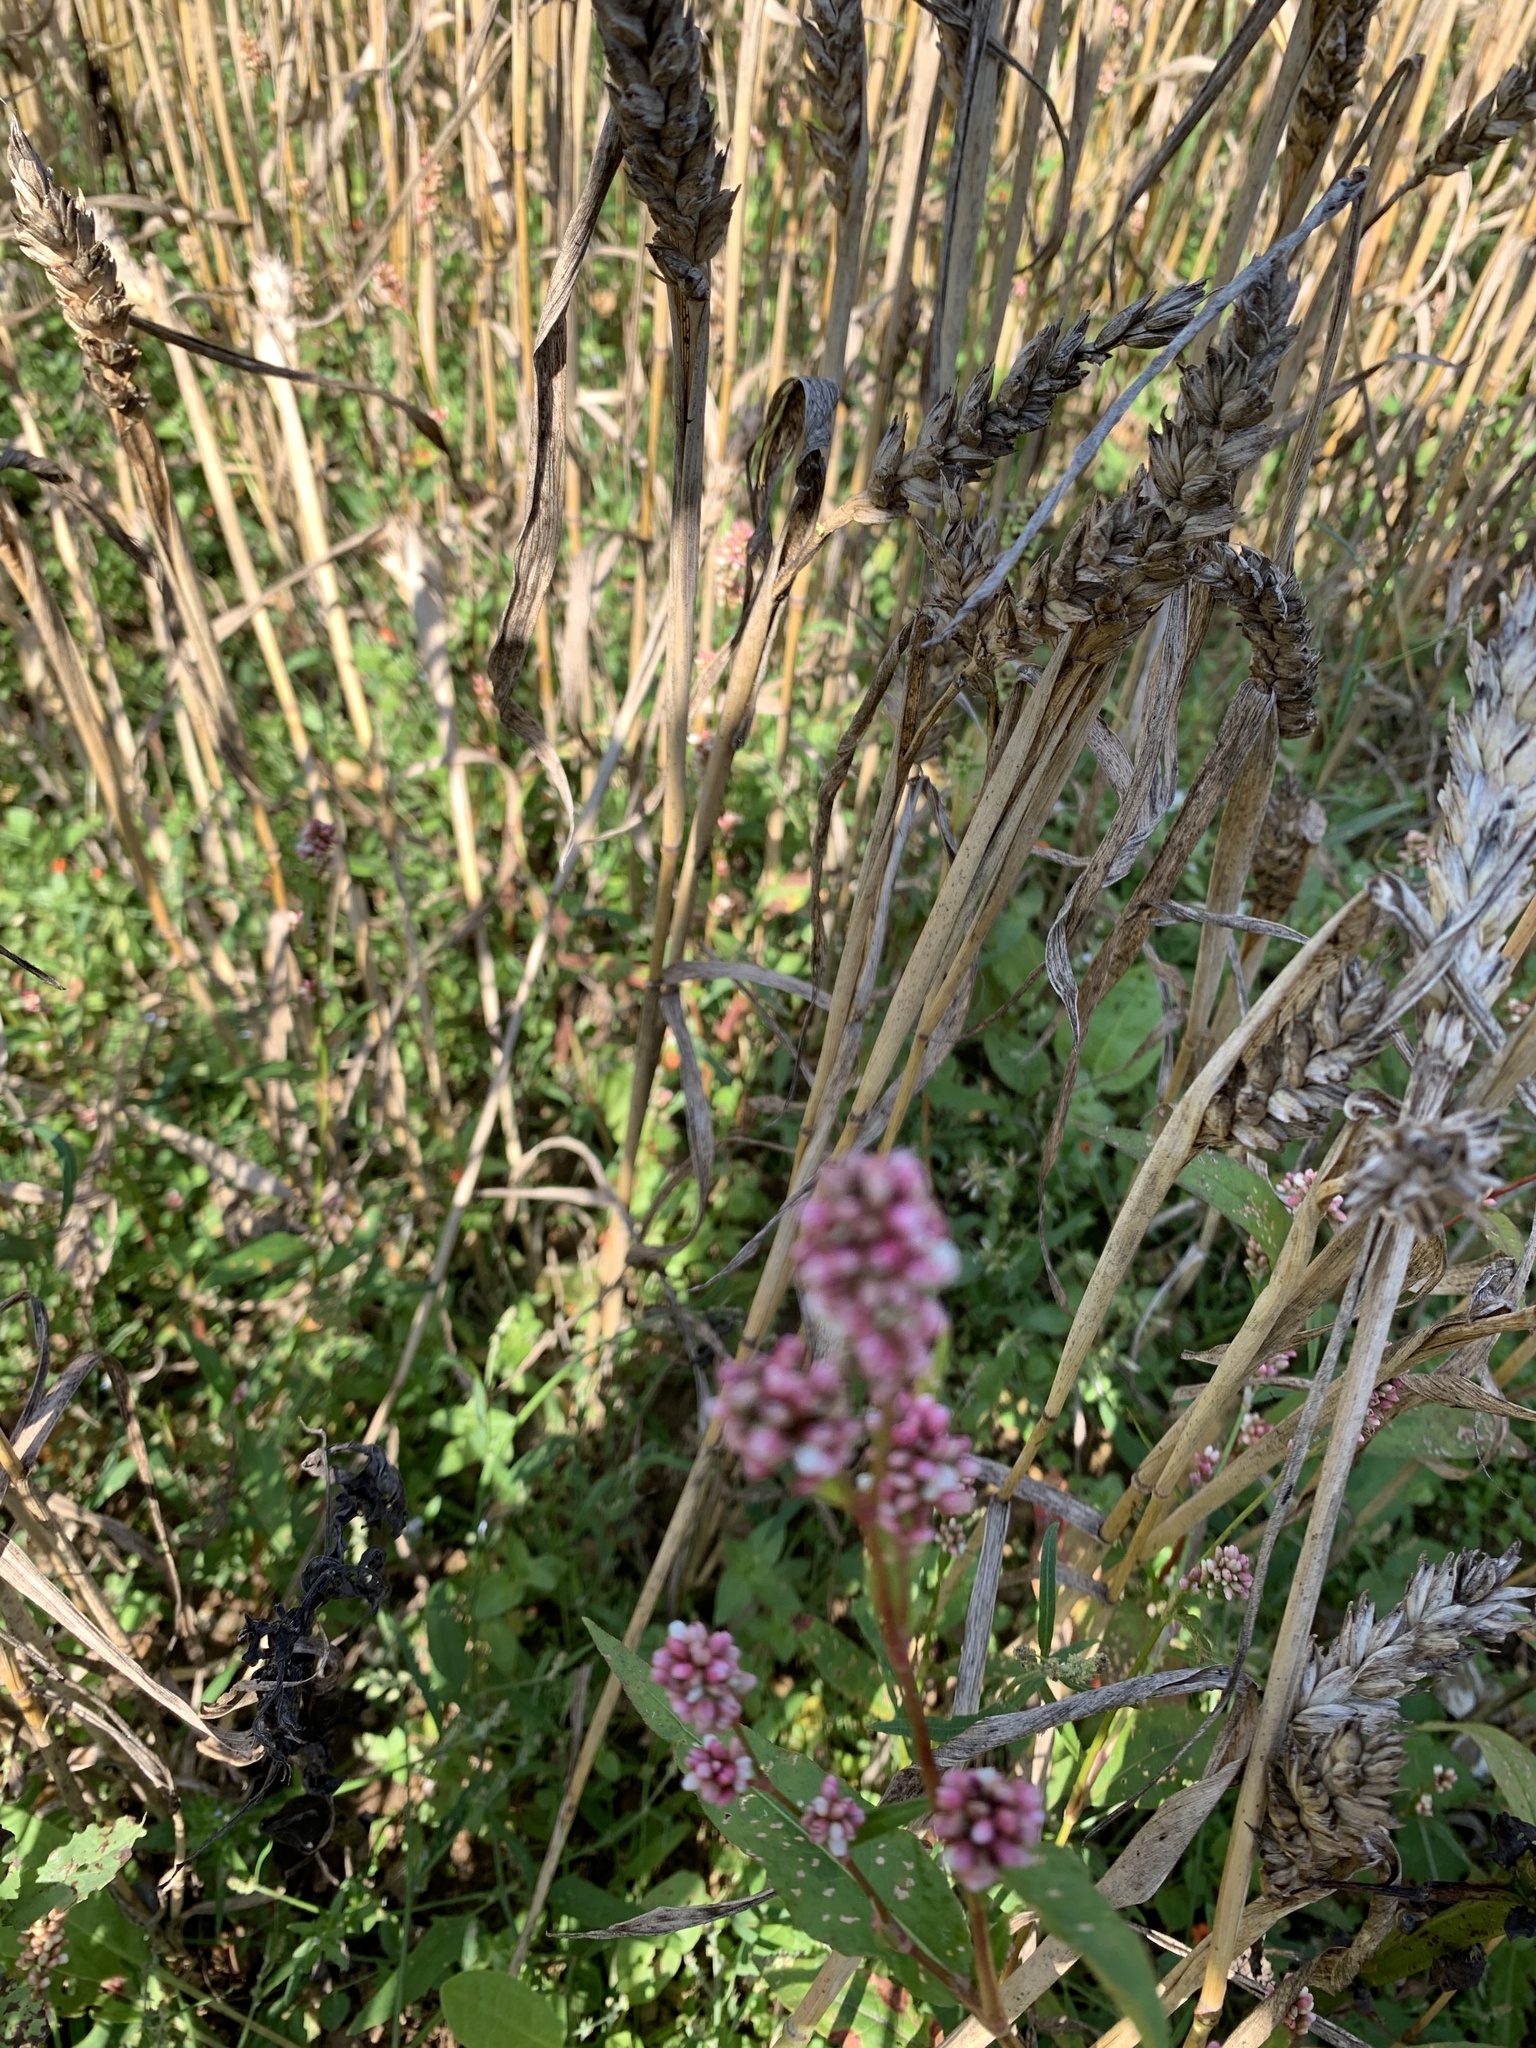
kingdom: Plantae
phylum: Tracheophyta
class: Magnoliopsida
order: Caryophyllales
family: Polygonaceae
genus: Persicaria
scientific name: Persicaria maculosa
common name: Redshank
